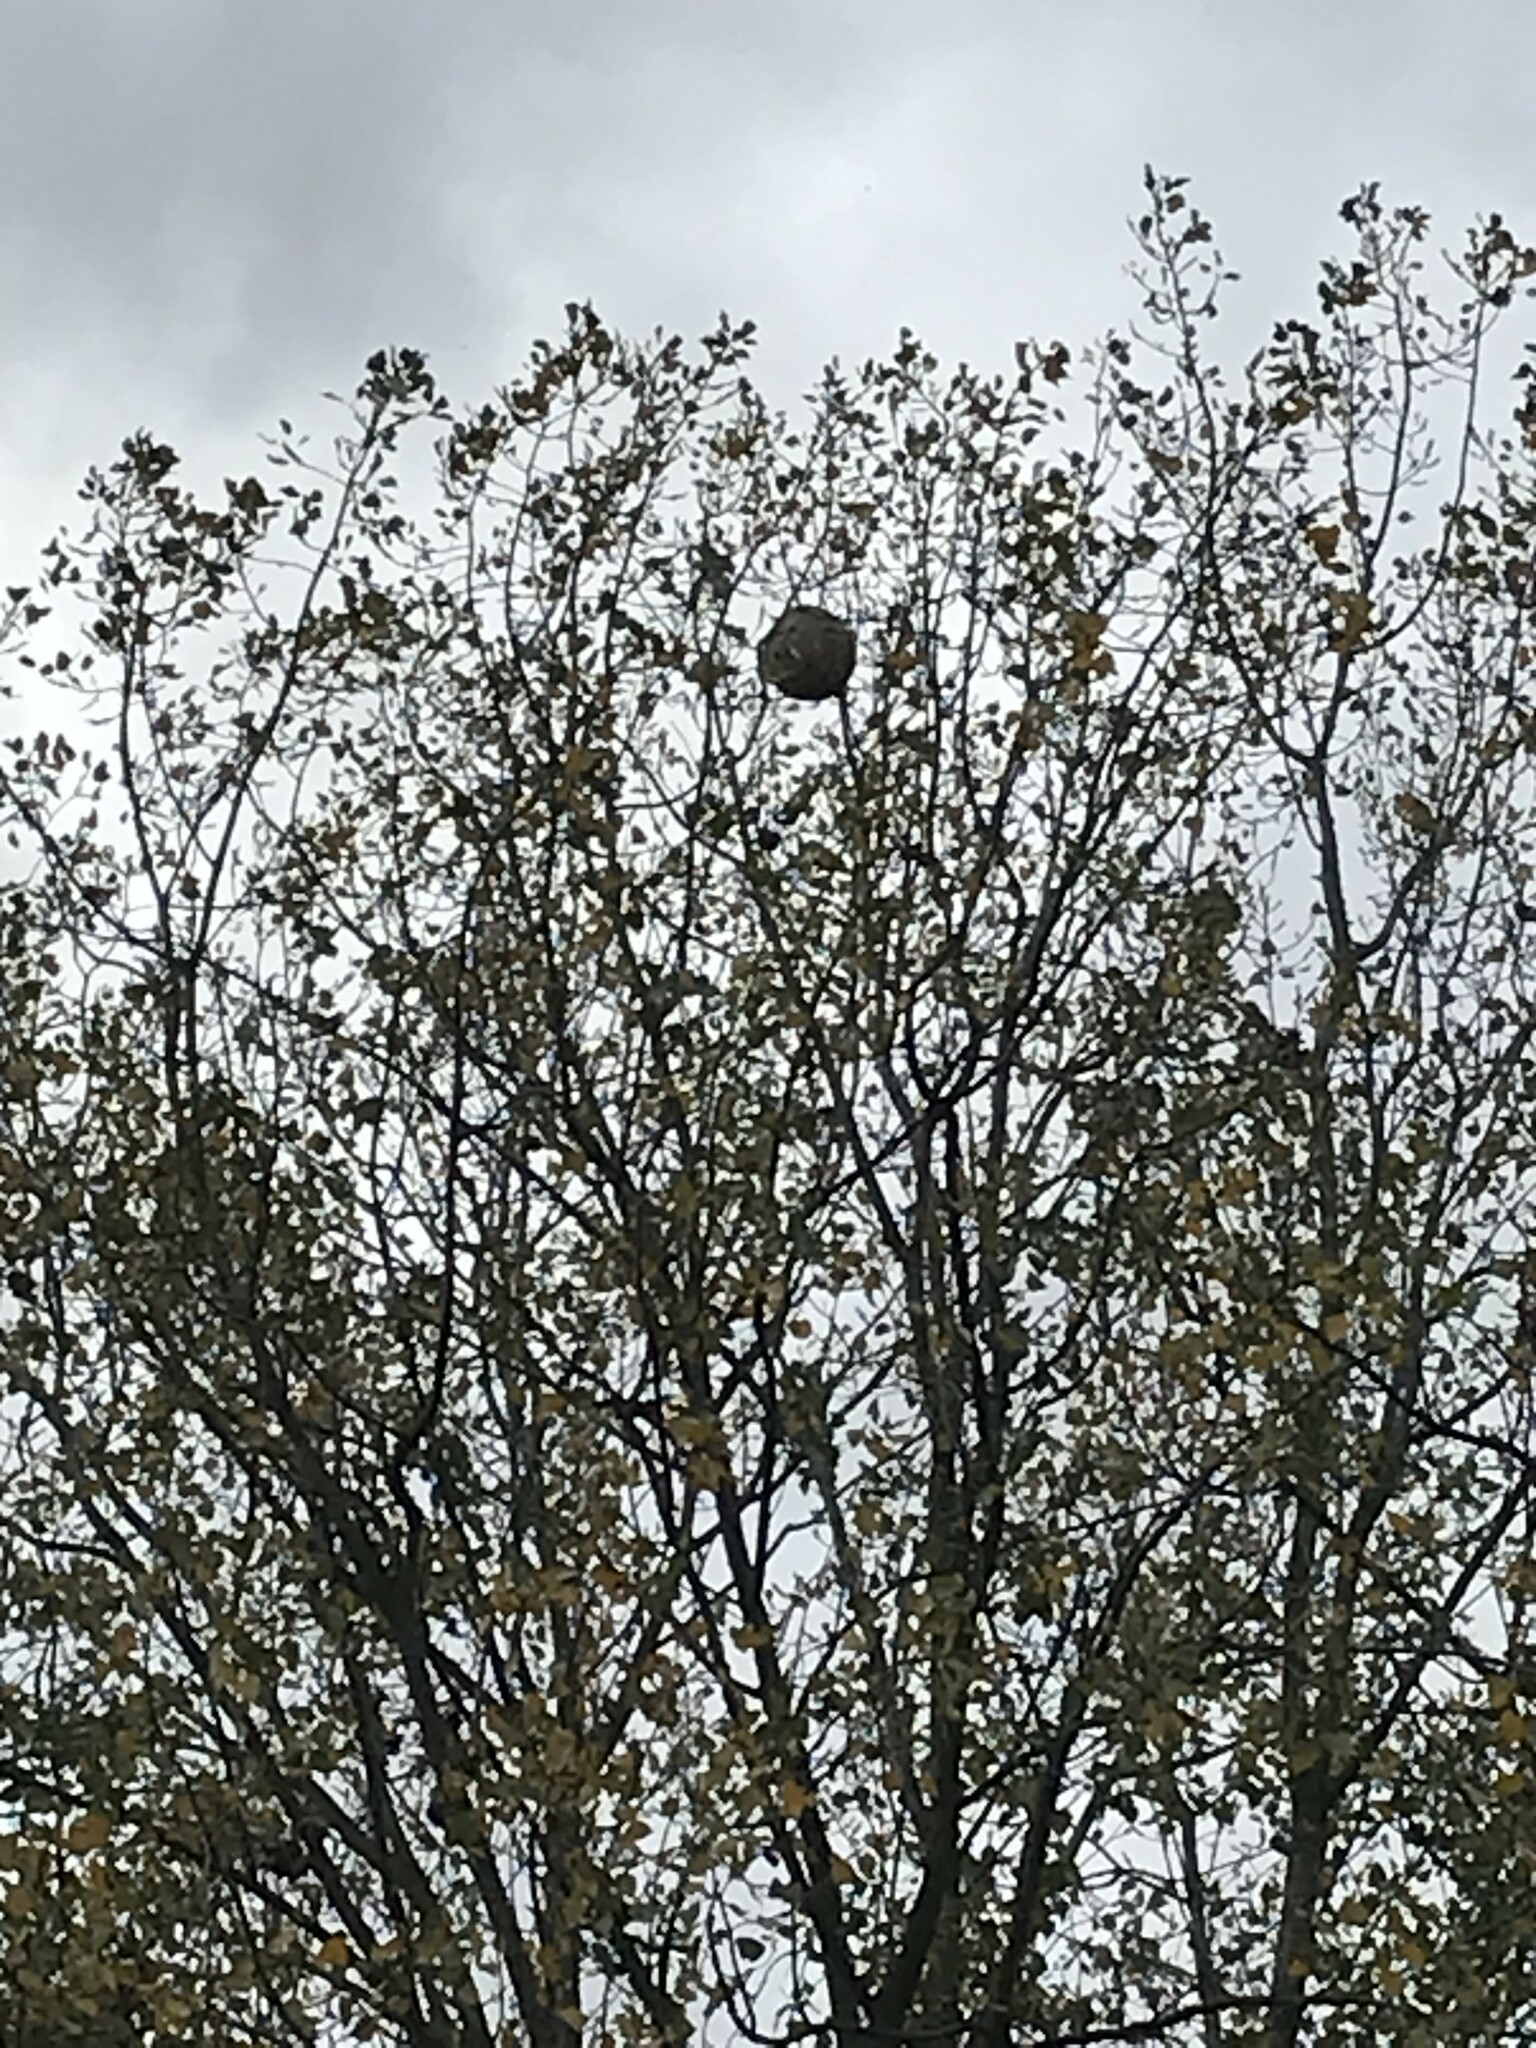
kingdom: Animalia
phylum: Arthropoda
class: Insecta
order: Hymenoptera
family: Vespidae
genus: Vespa
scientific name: Vespa velutina
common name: Asian hornet
